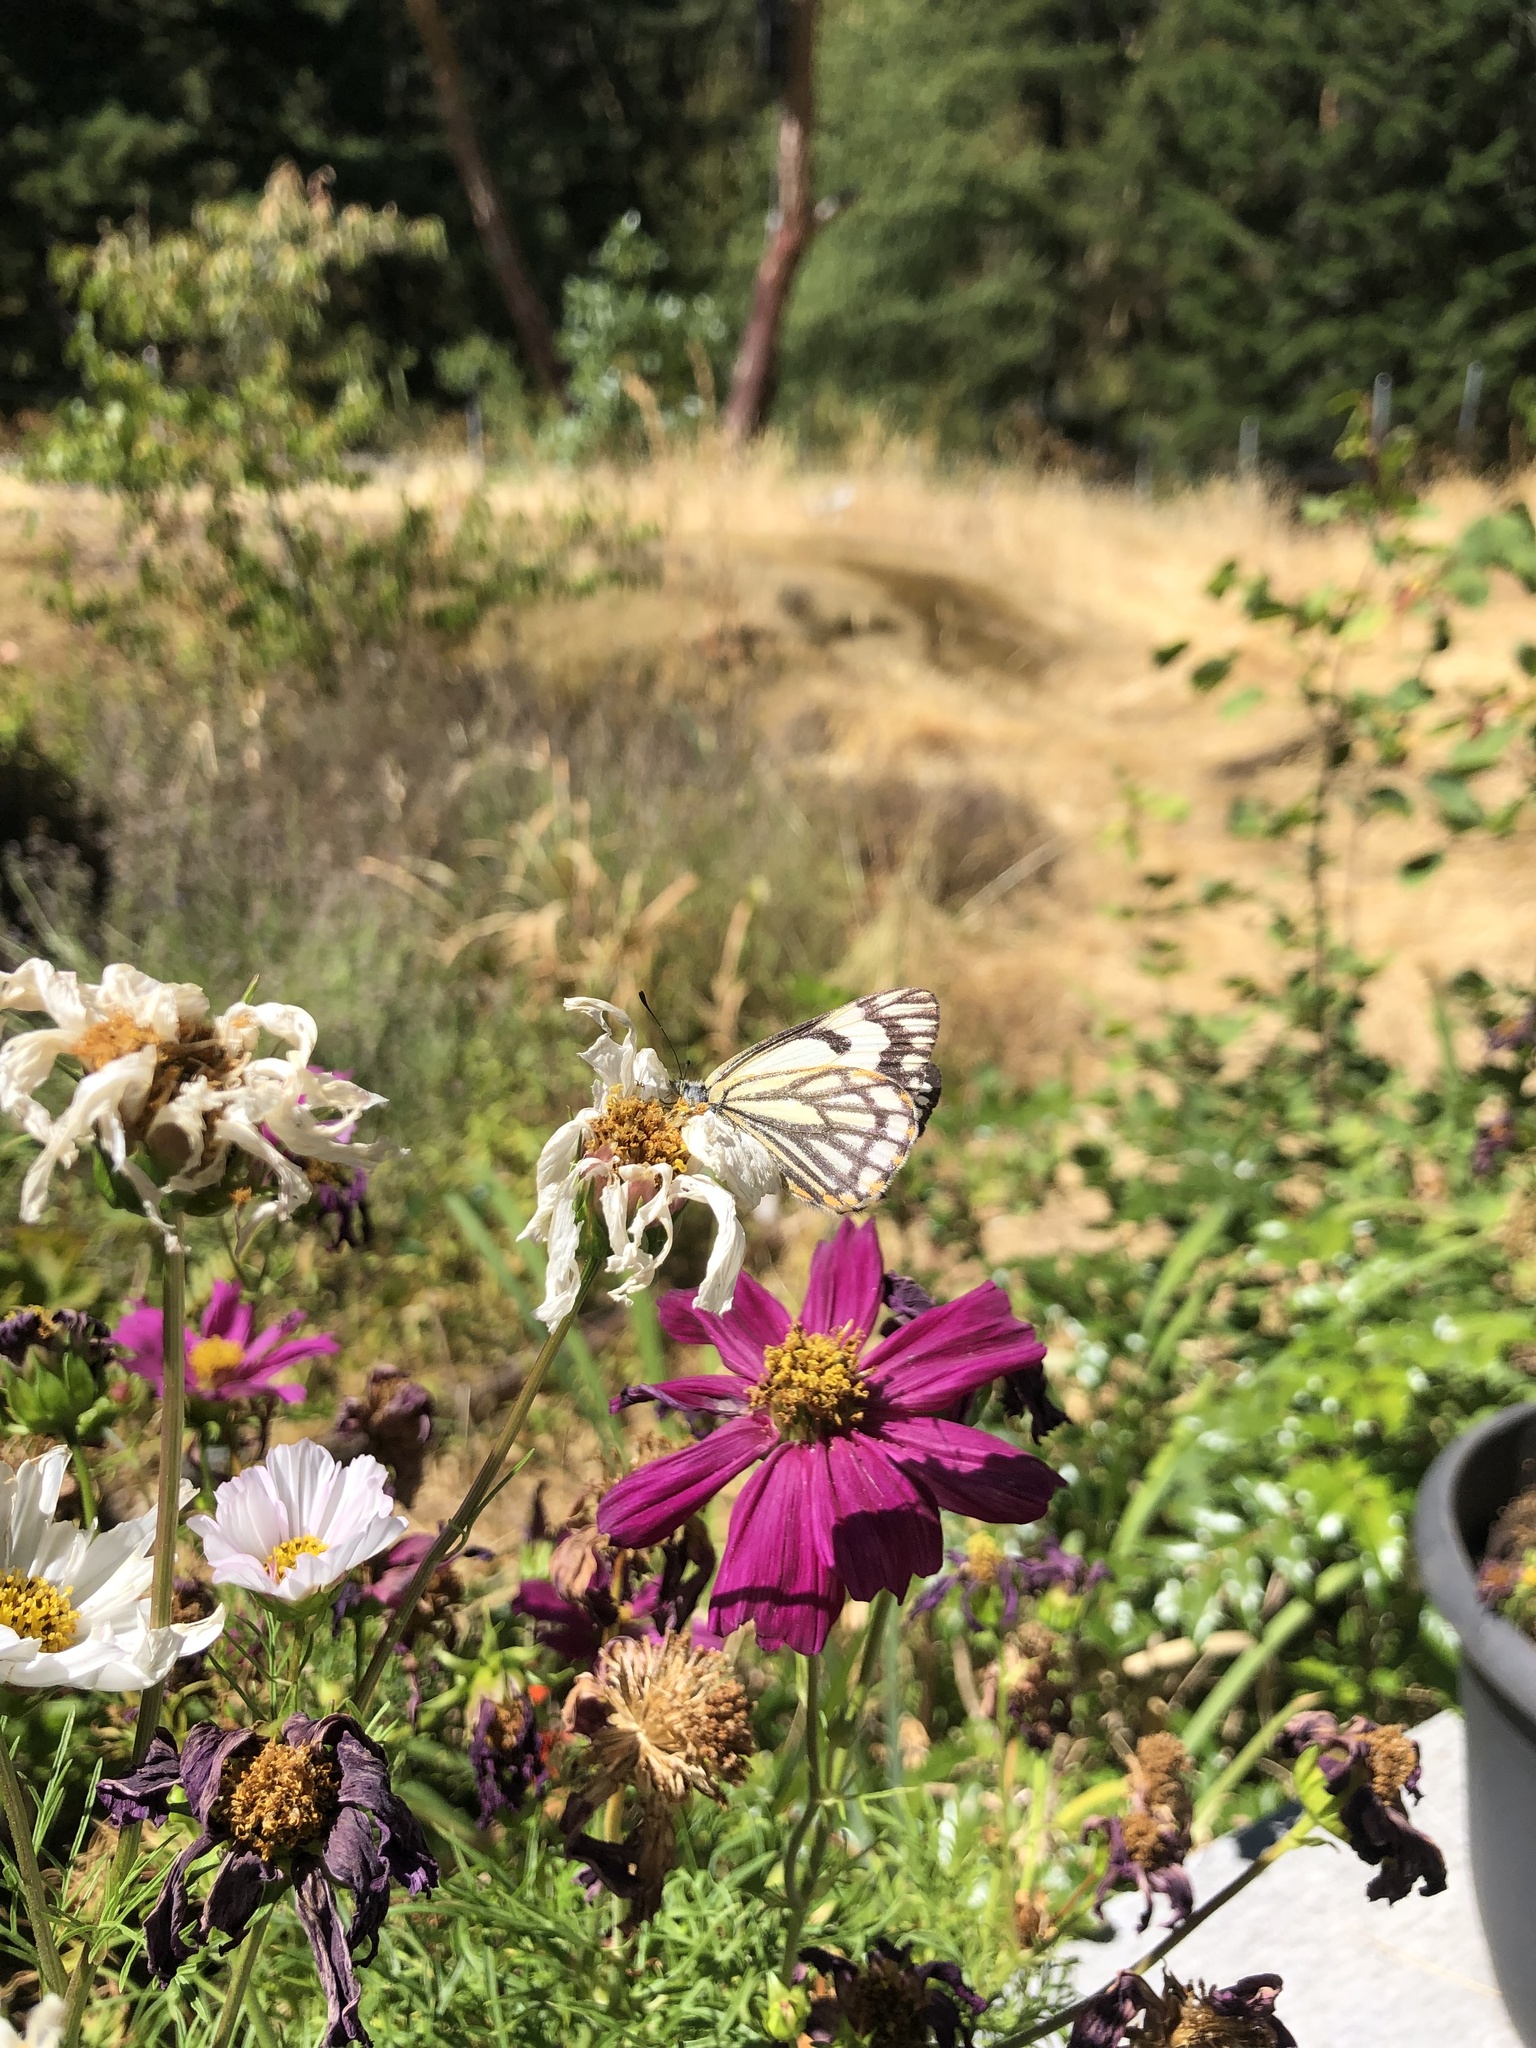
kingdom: Animalia
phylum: Arthropoda
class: Insecta
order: Lepidoptera
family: Pieridae
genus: Neophasia
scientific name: Neophasia menapia
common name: Pine white
